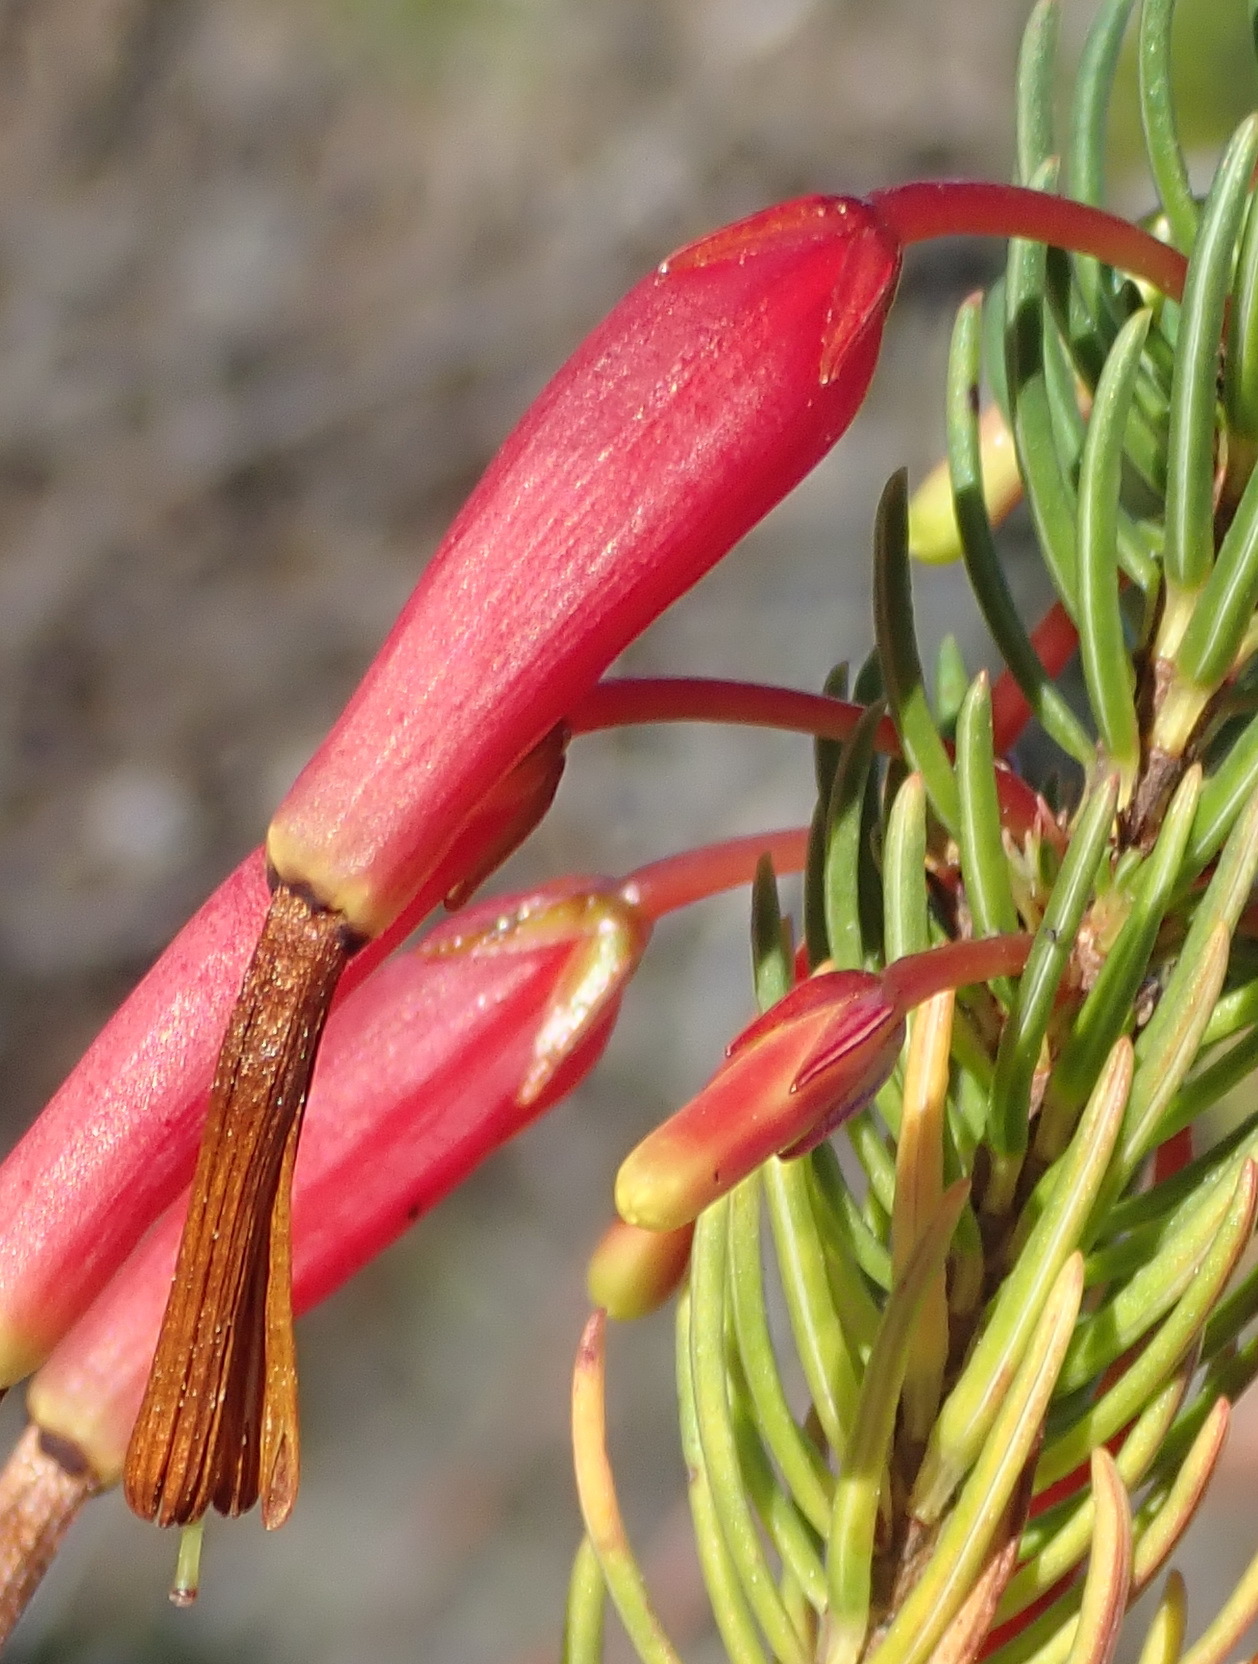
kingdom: Plantae
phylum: Tracheophyta
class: Magnoliopsida
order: Ericales
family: Ericaceae
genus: Erica
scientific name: Erica plukenetii
